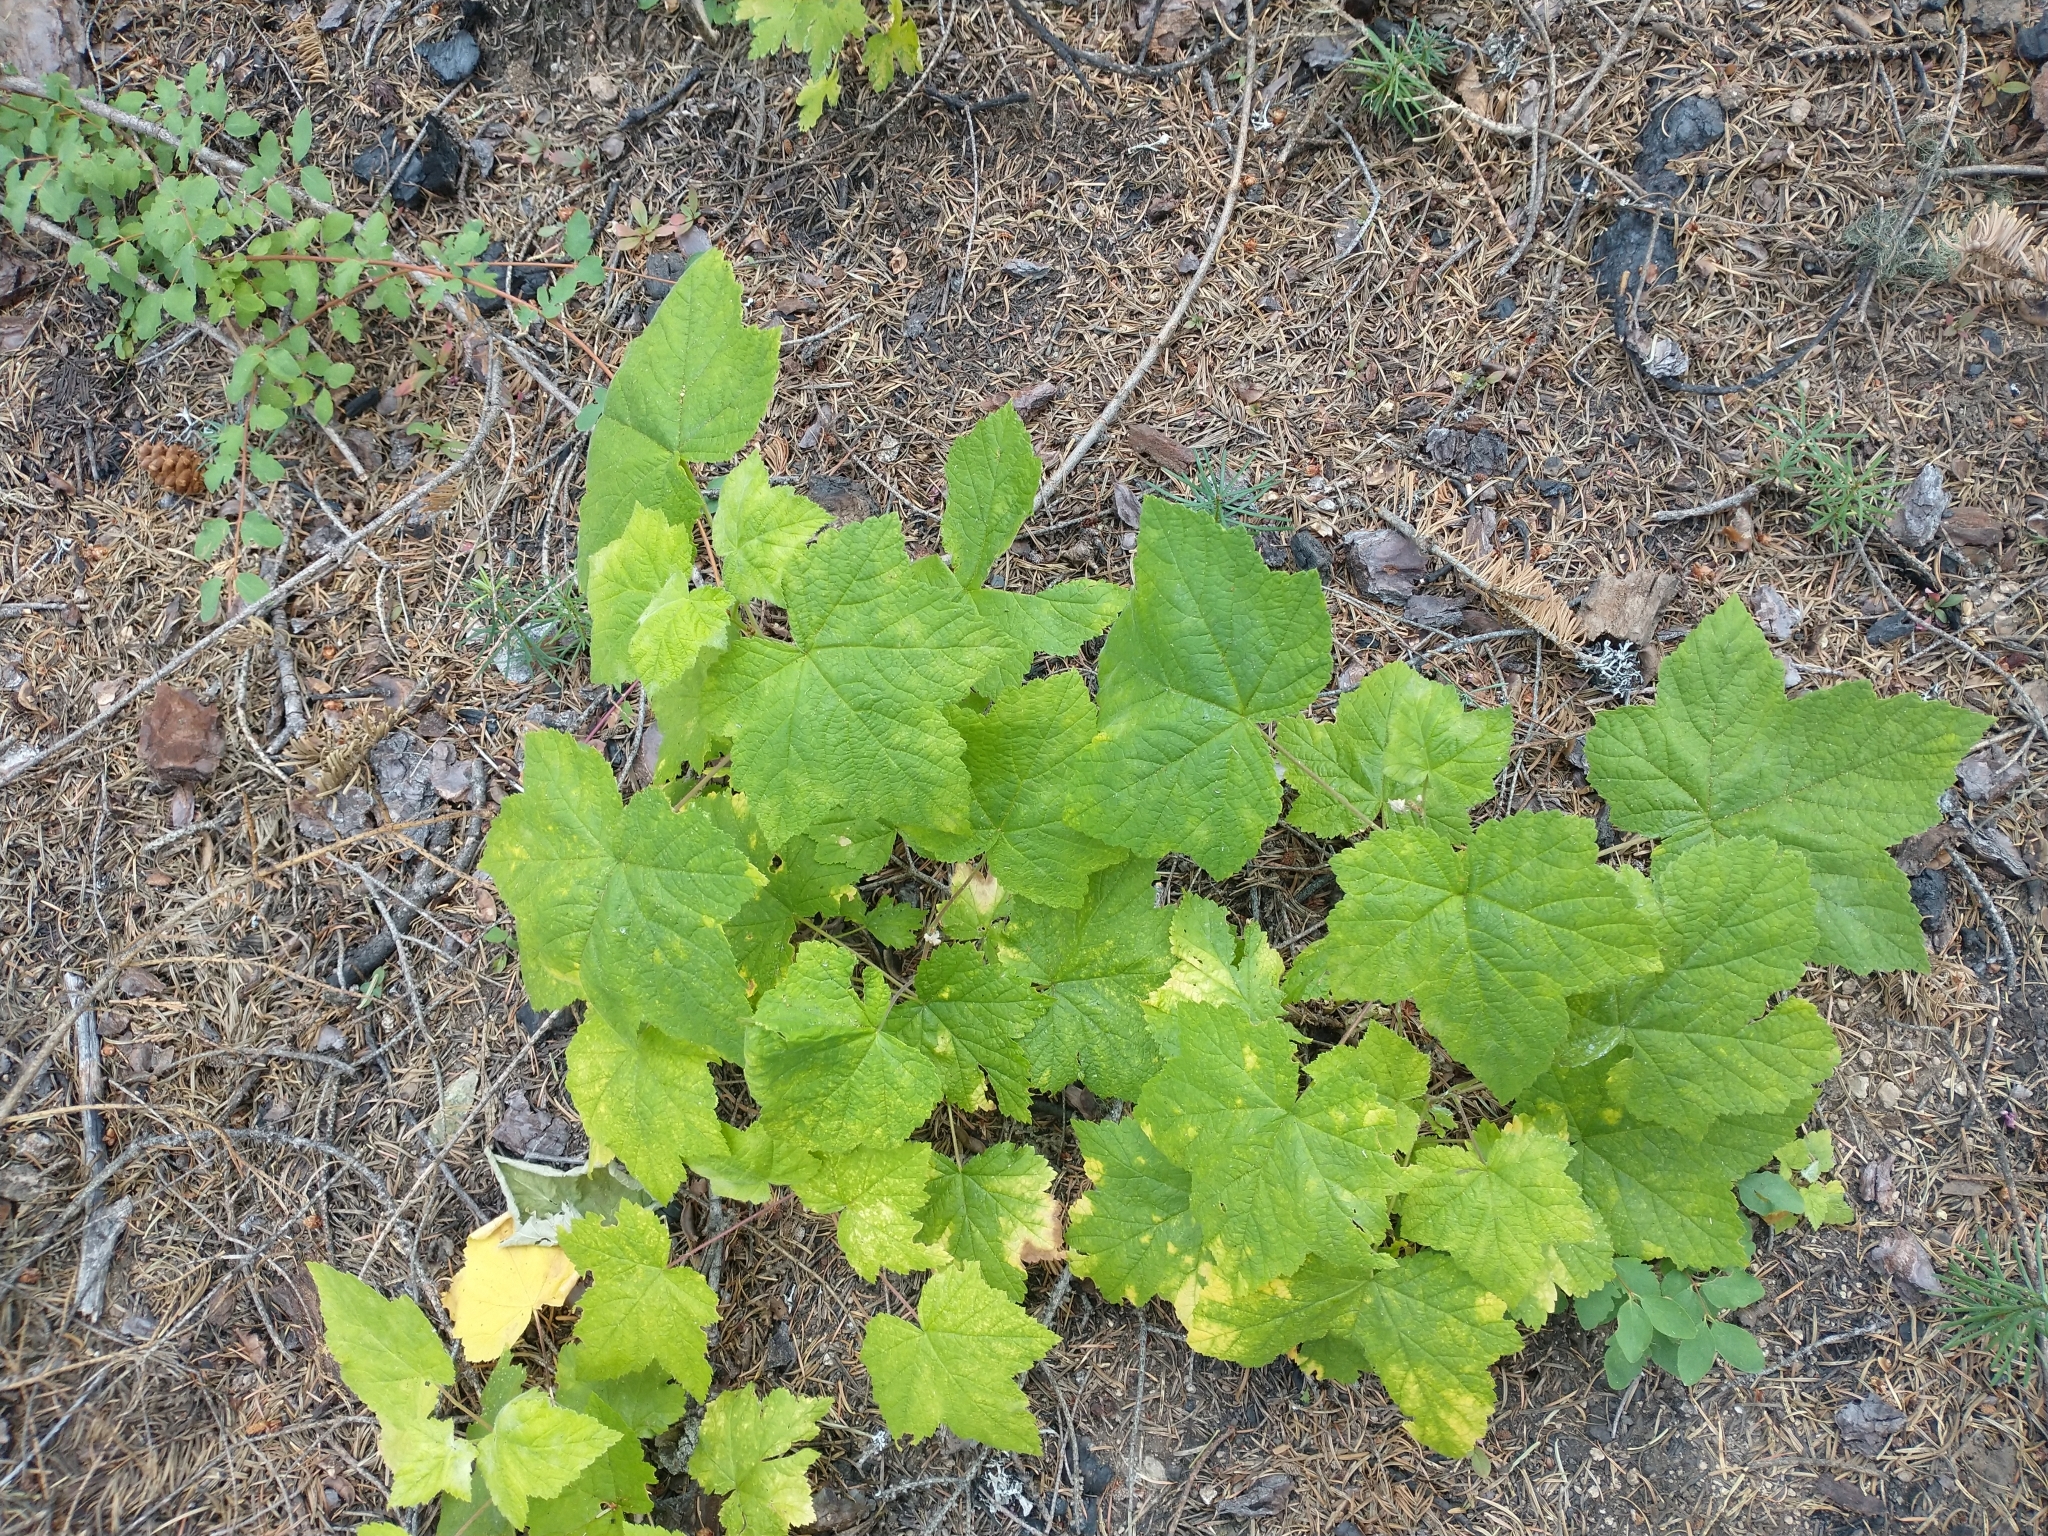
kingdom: Plantae
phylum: Tracheophyta
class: Magnoliopsida
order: Rosales
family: Rosaceae
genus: Rubus
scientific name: Rubus parviflorus
